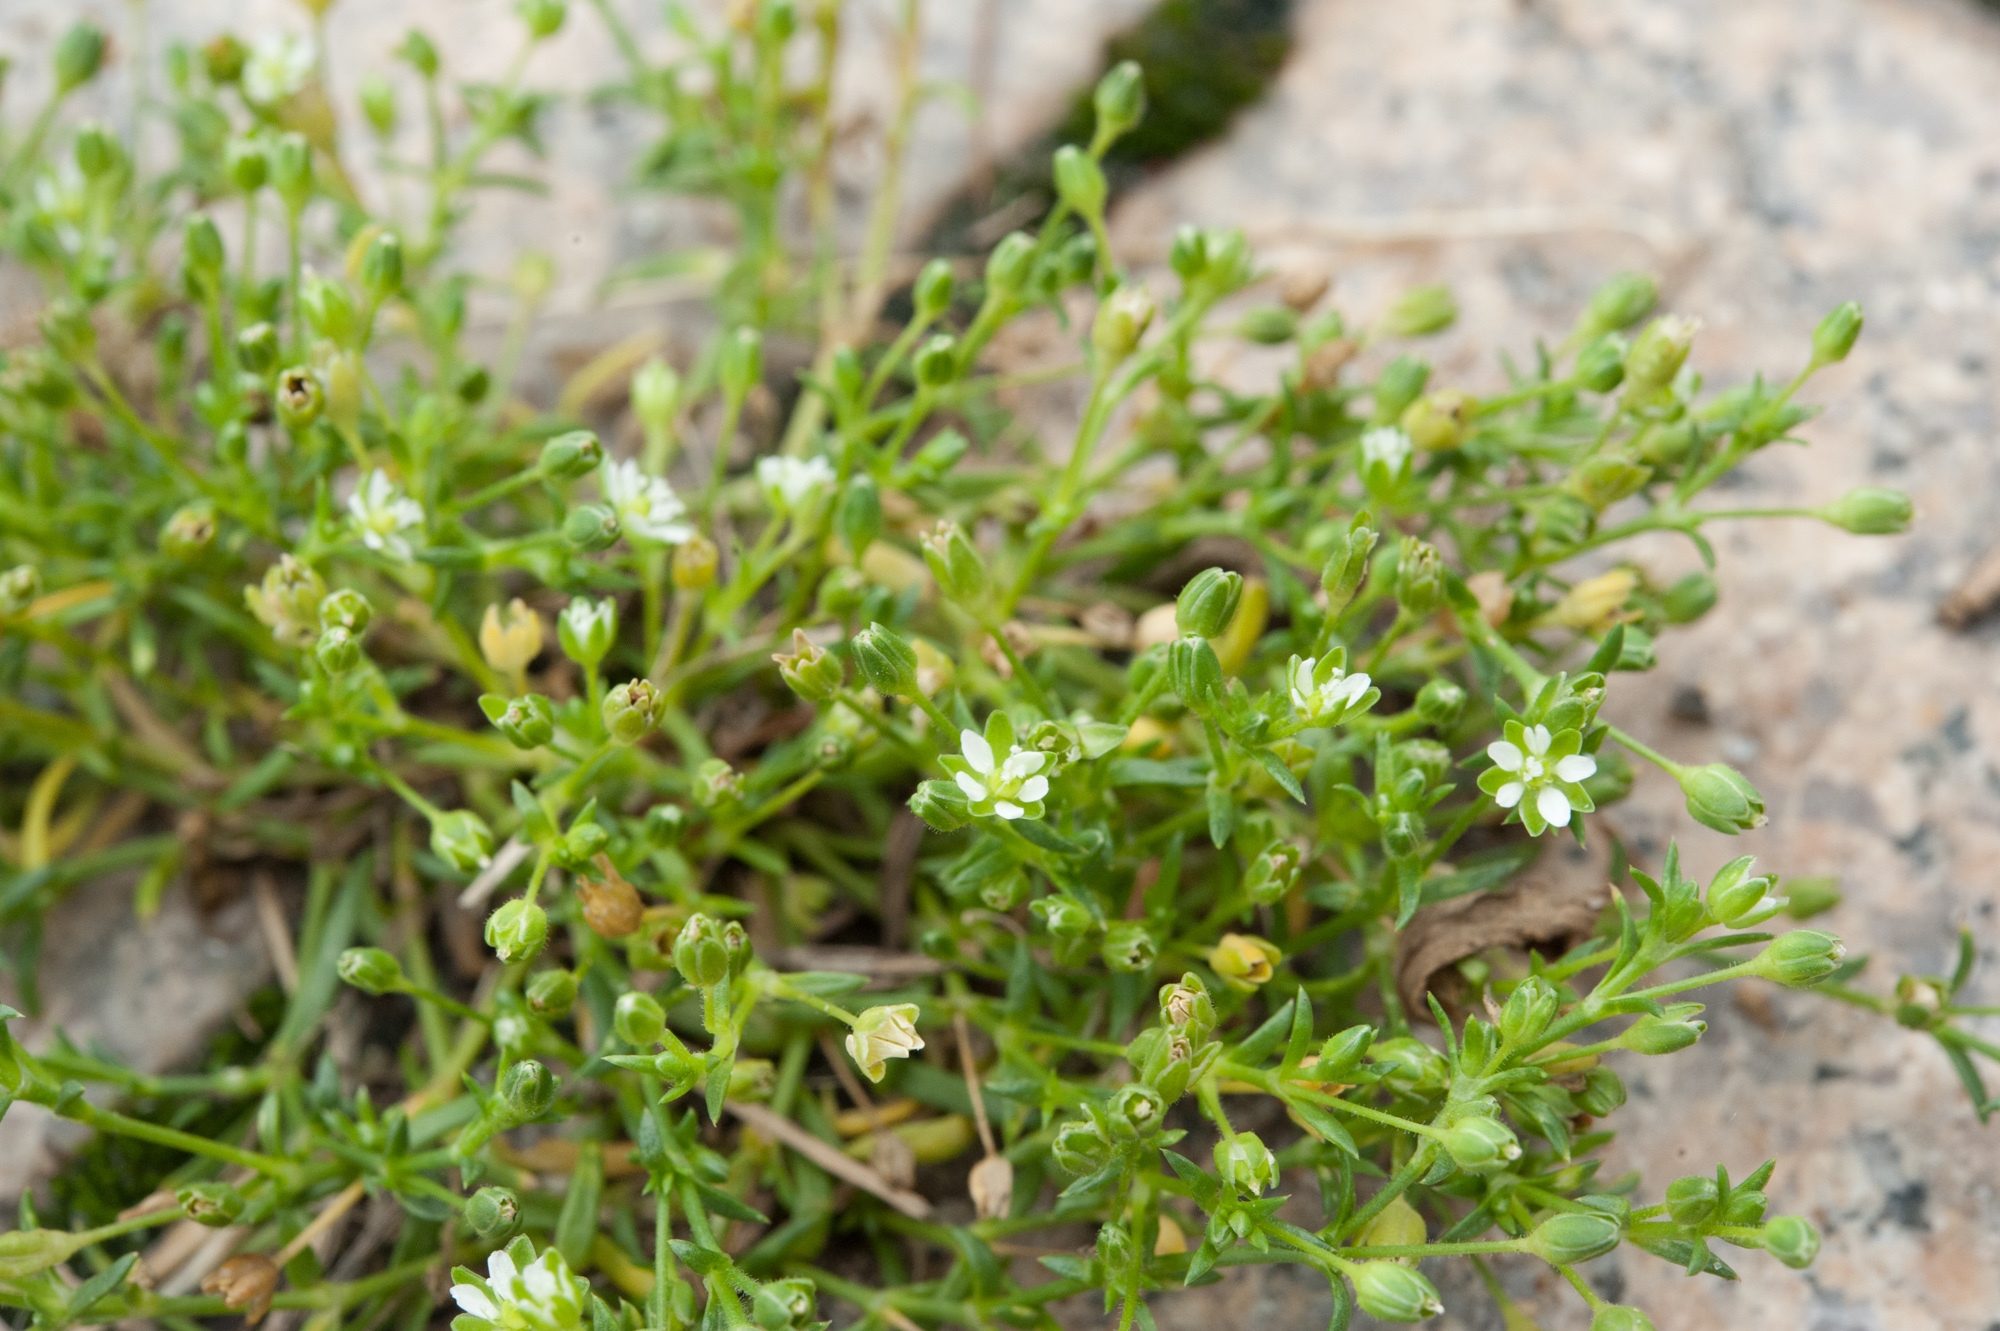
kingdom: Plantae
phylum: Tracheophyta
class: Magnoliopsida
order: Caryophyllales
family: Caryophyllaceae
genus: Sagina
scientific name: Sagina japonica
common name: Japanese pearlwort
